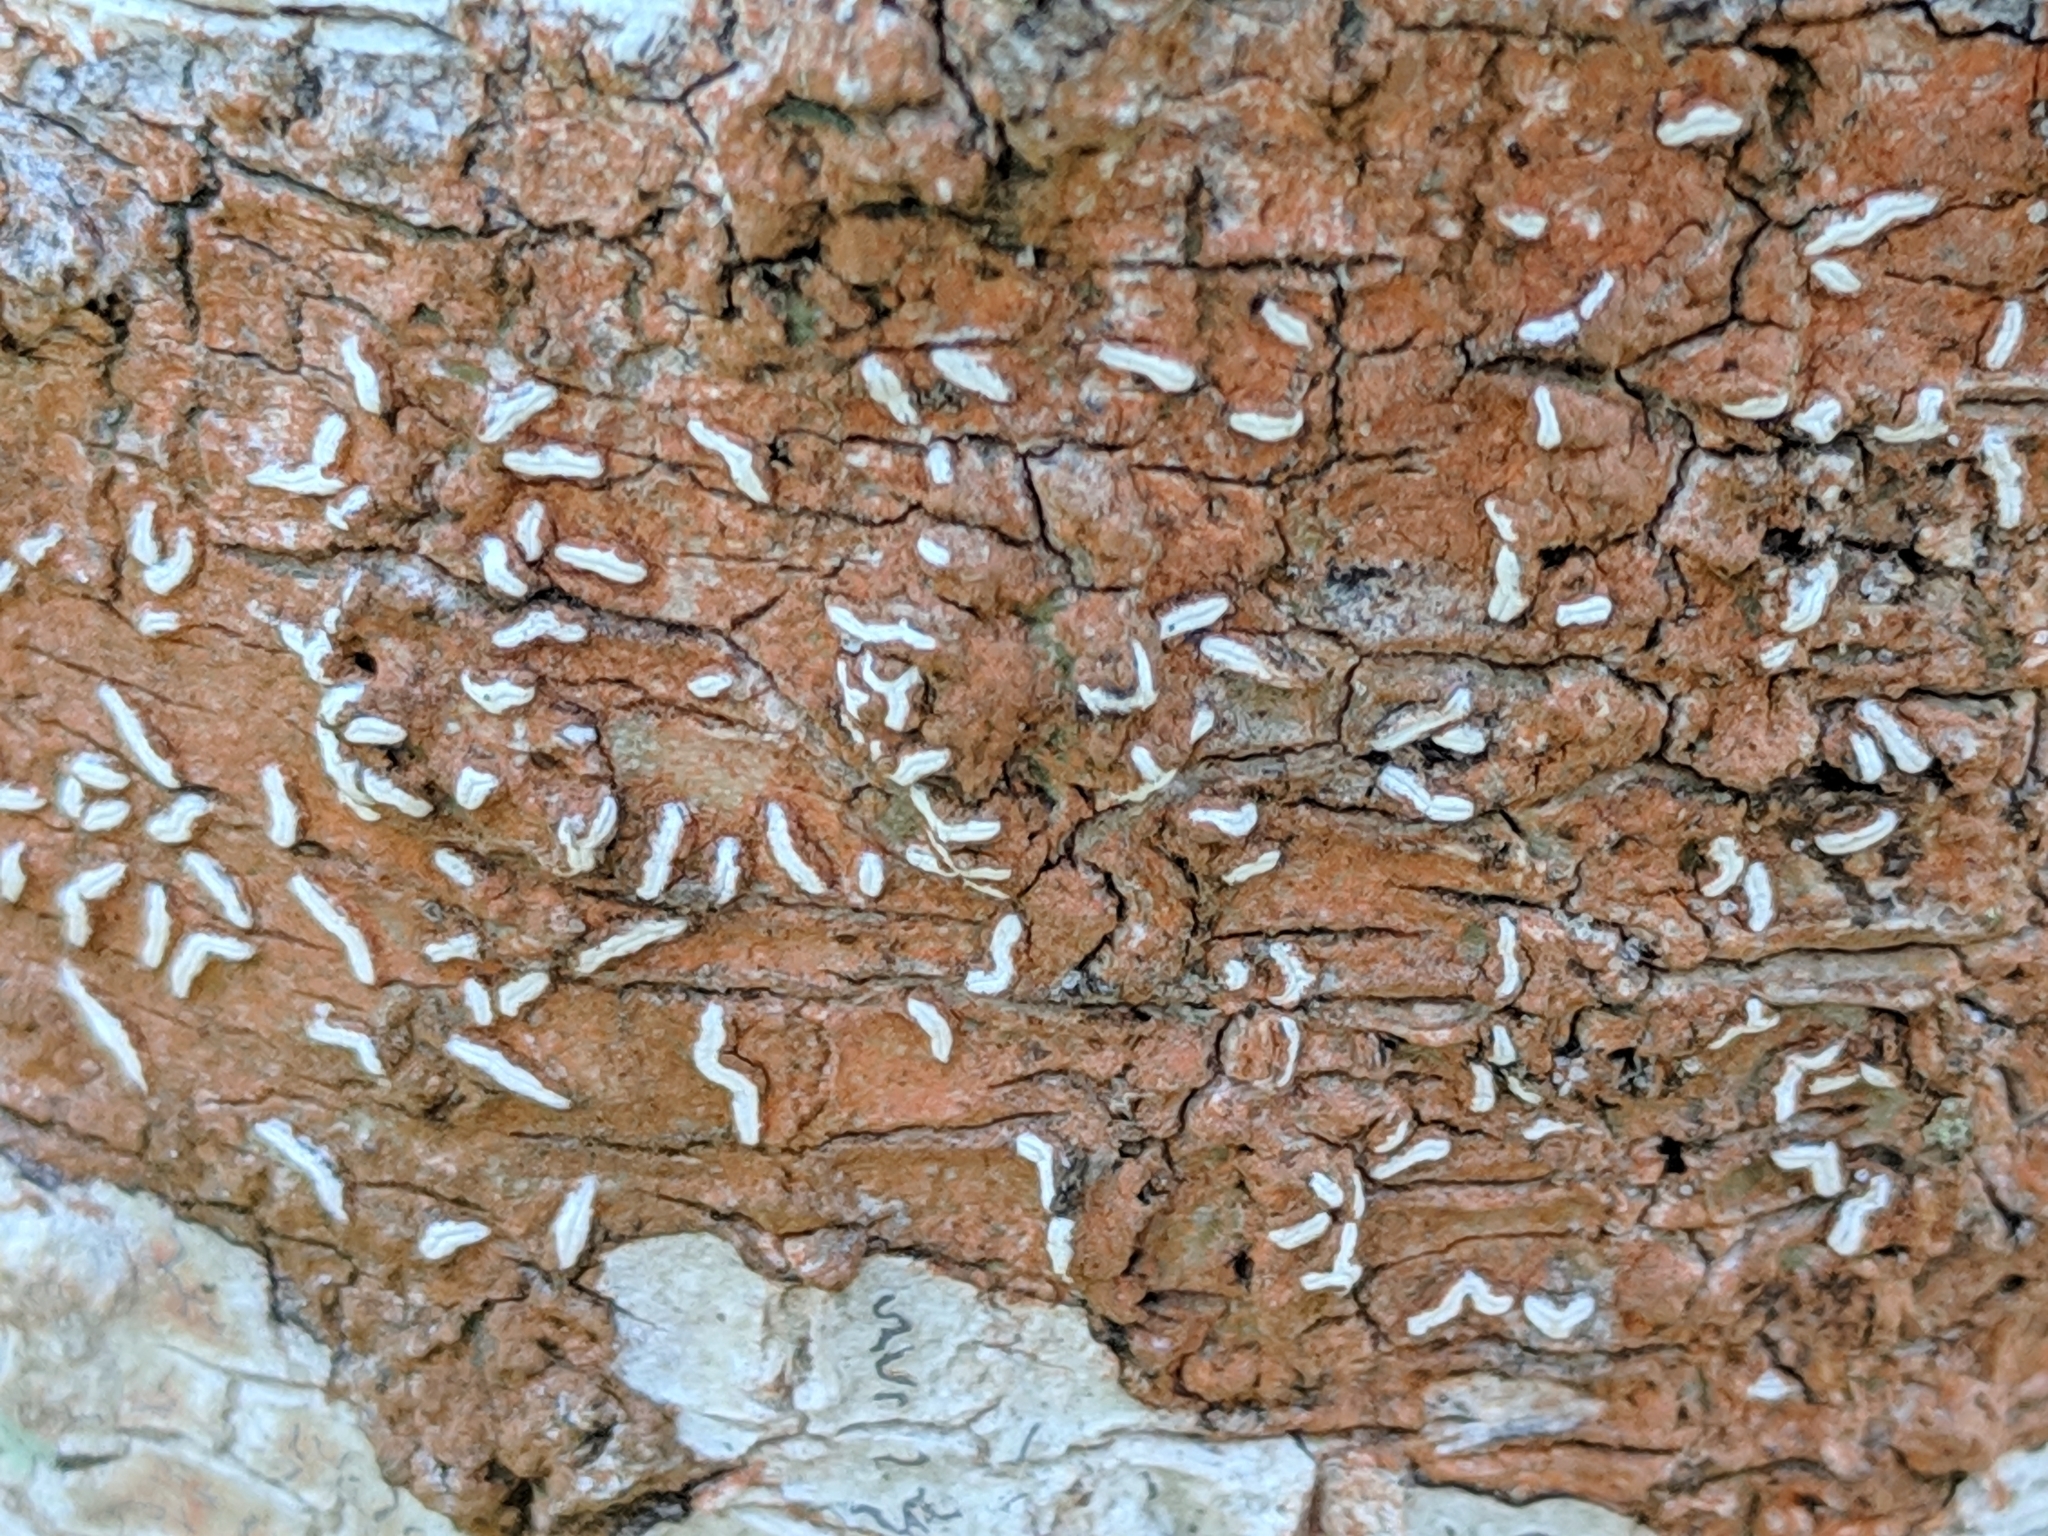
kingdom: Fungi
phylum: Ascomycota
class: Lecanoromycetes
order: Ostropales
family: Graphidaceae
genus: Dyplolabia
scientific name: Dyplolabia afzelii
